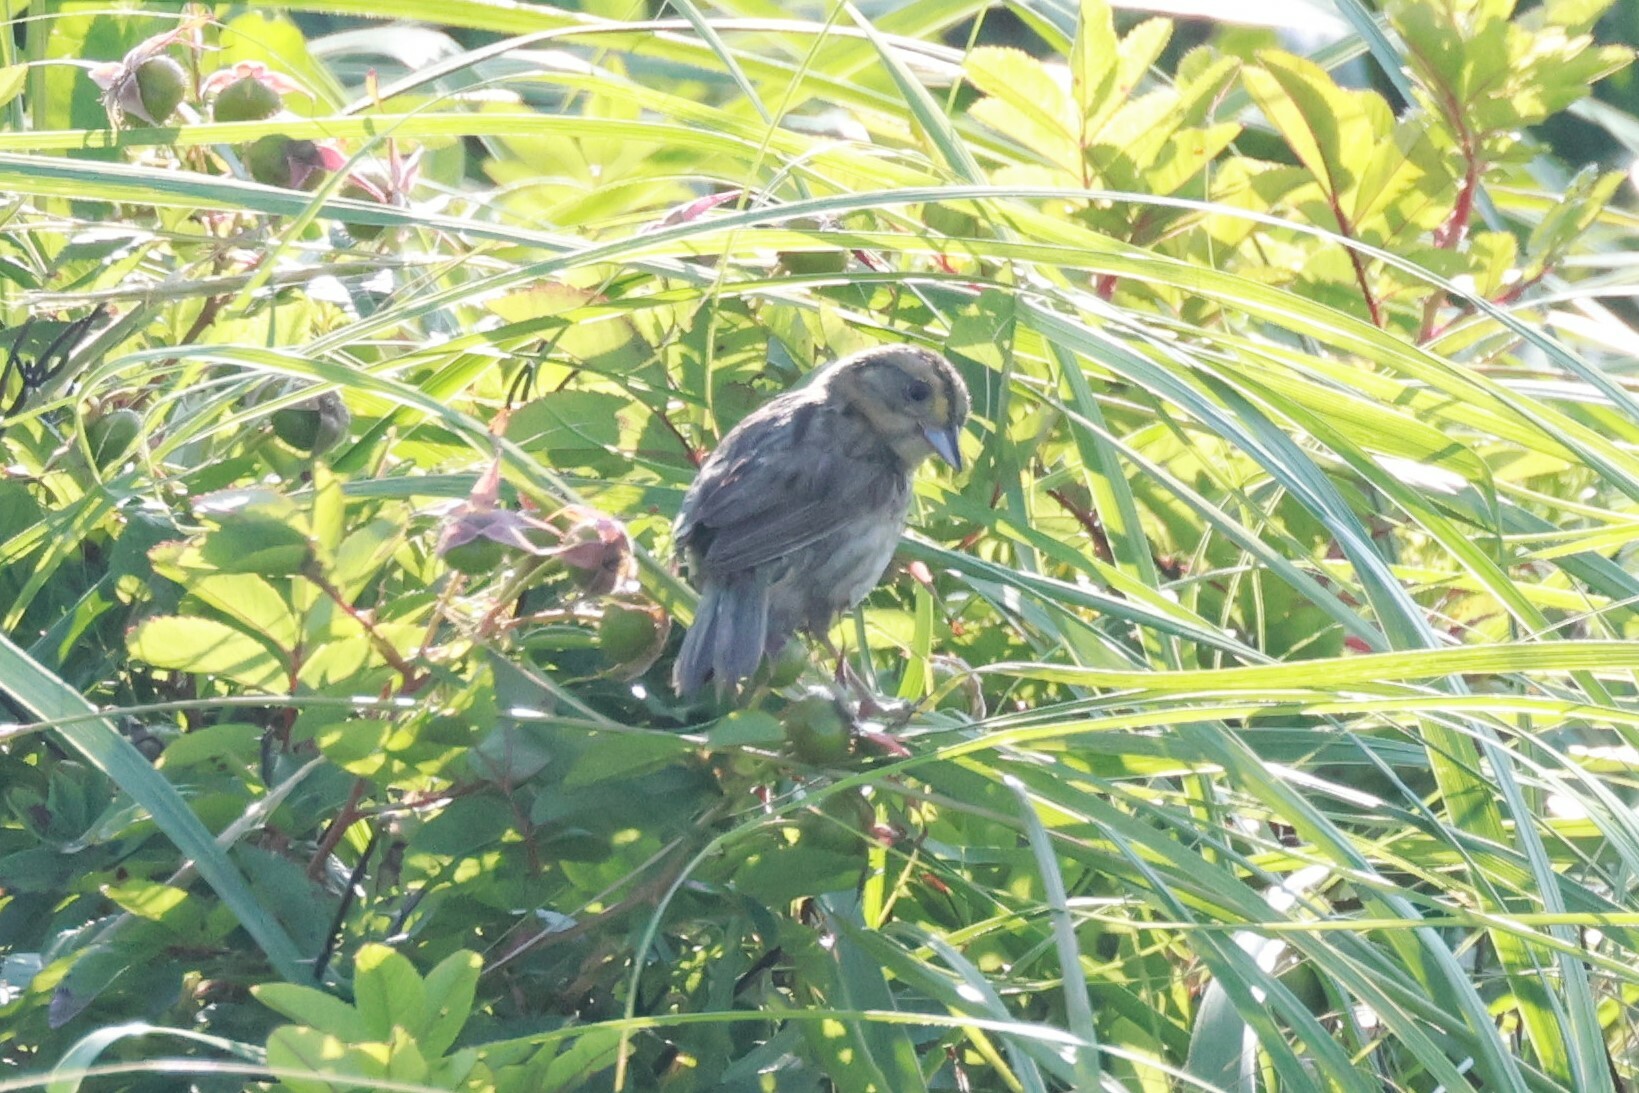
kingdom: Animalia
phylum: Chordata
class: Aves
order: Passeriformes
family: Passerellidae
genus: Ammospiza
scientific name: Ammospiza nelsoni
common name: Nelson's sparrow
